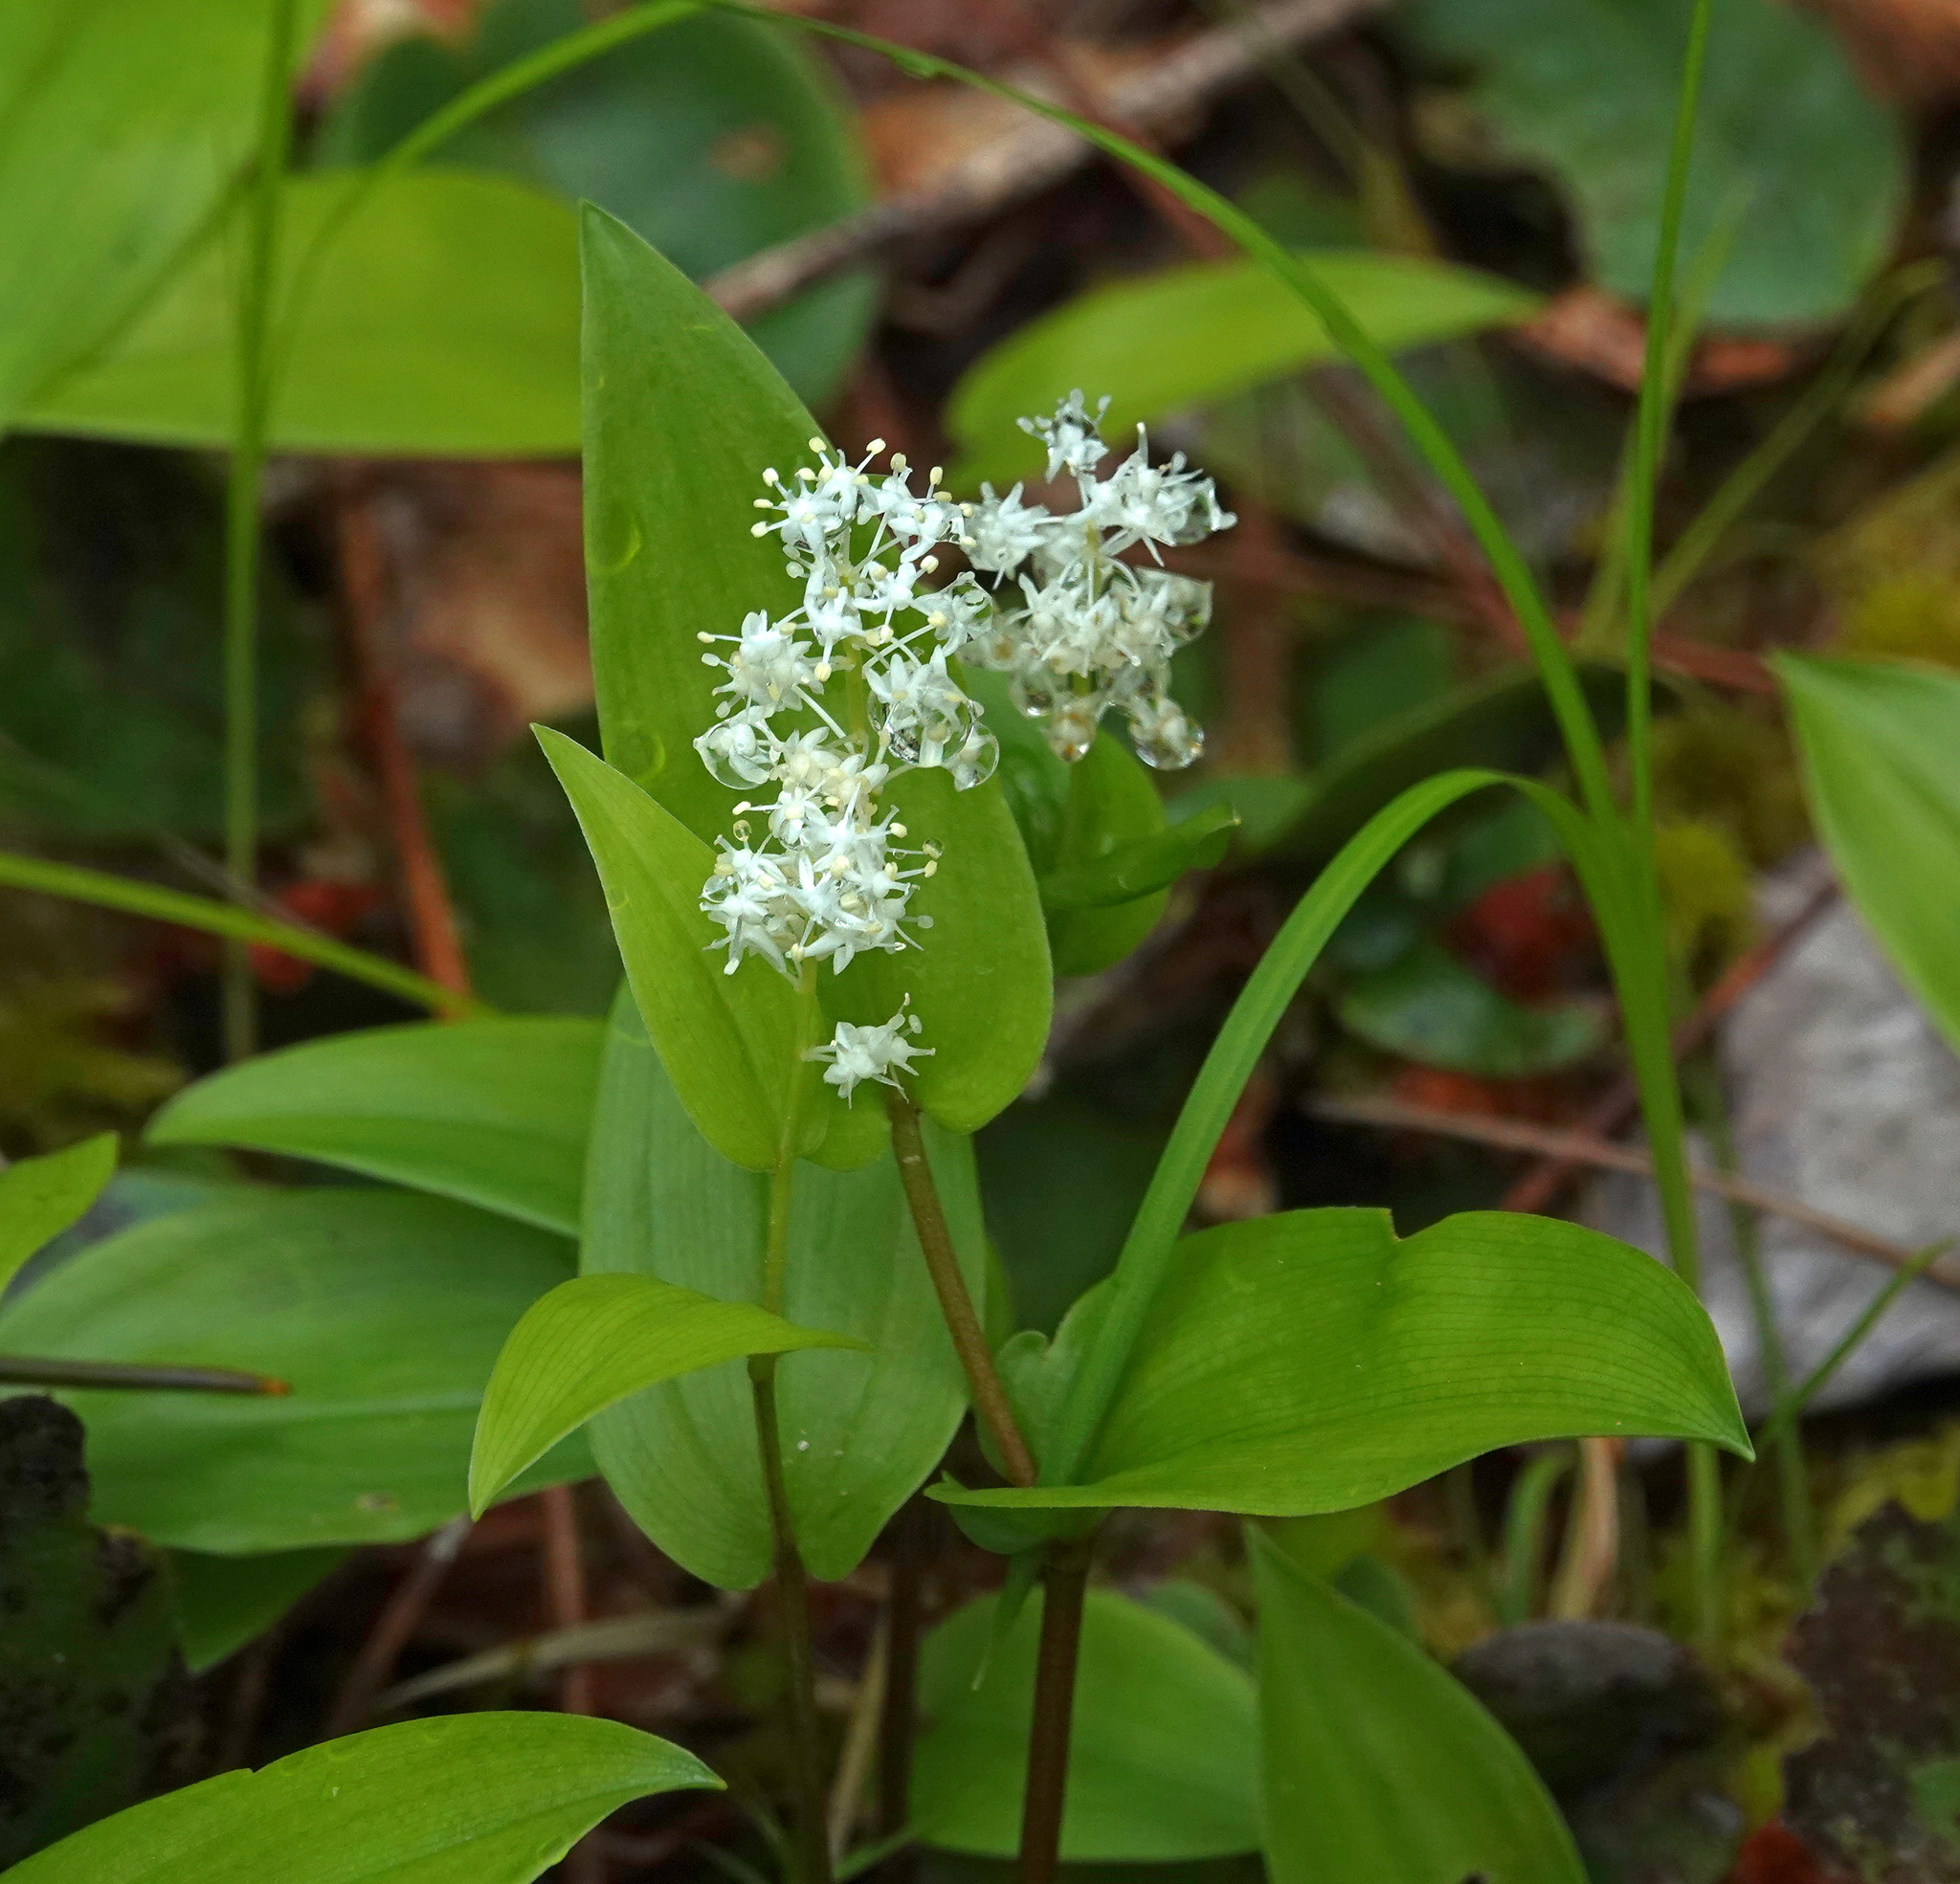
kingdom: Plantae
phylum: Tracheophyta
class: Liliopsida
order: Asparagales
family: Asparagaceae
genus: Maianthemum
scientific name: Maianthemum canadense
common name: False lily-of-the-valley
